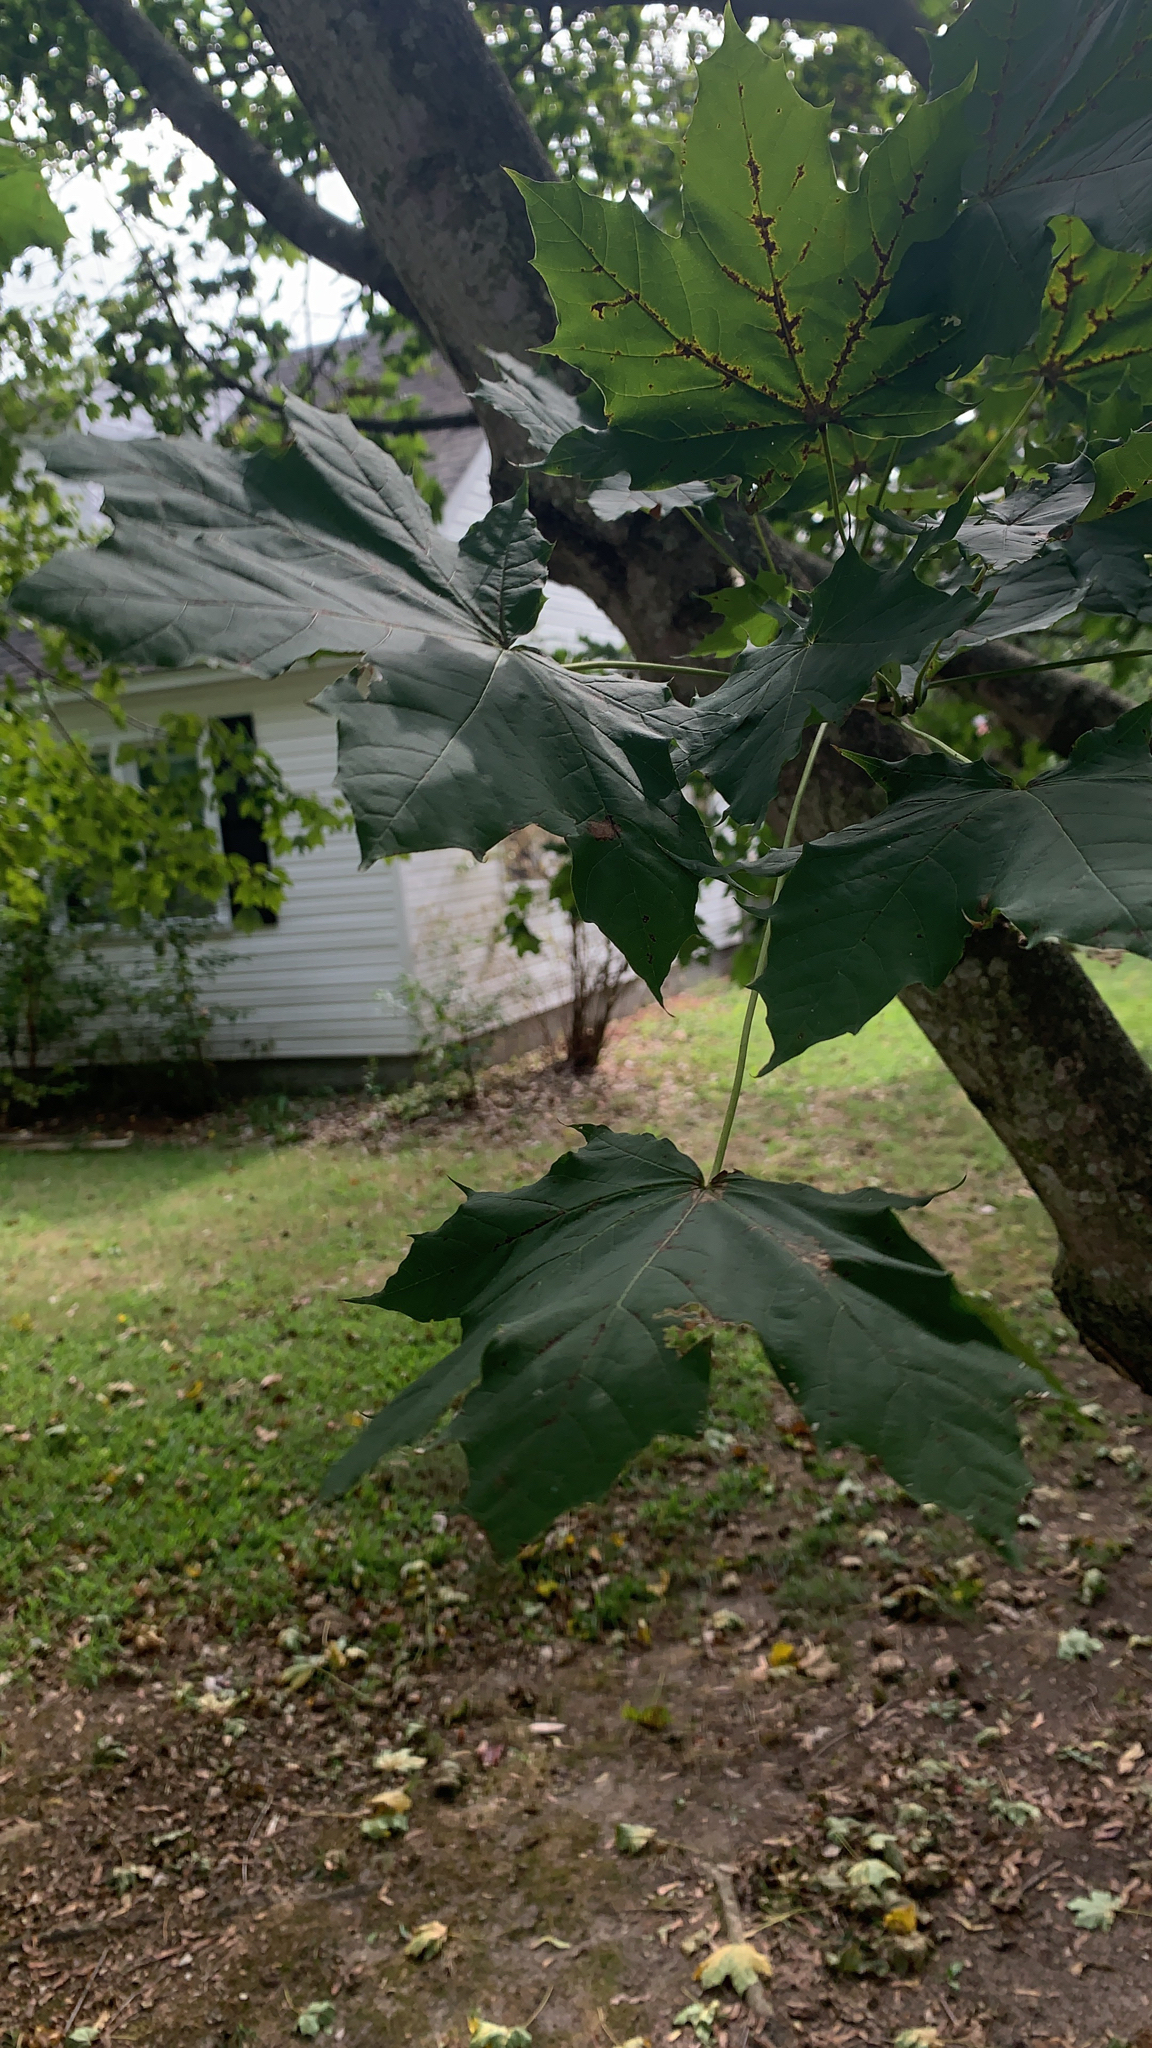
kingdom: Plantae
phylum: Tracheophyta
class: Magnoliopsida
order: Sapindales
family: Sapindaceae
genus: Acer
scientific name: Acer platanoides
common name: Norway maple
